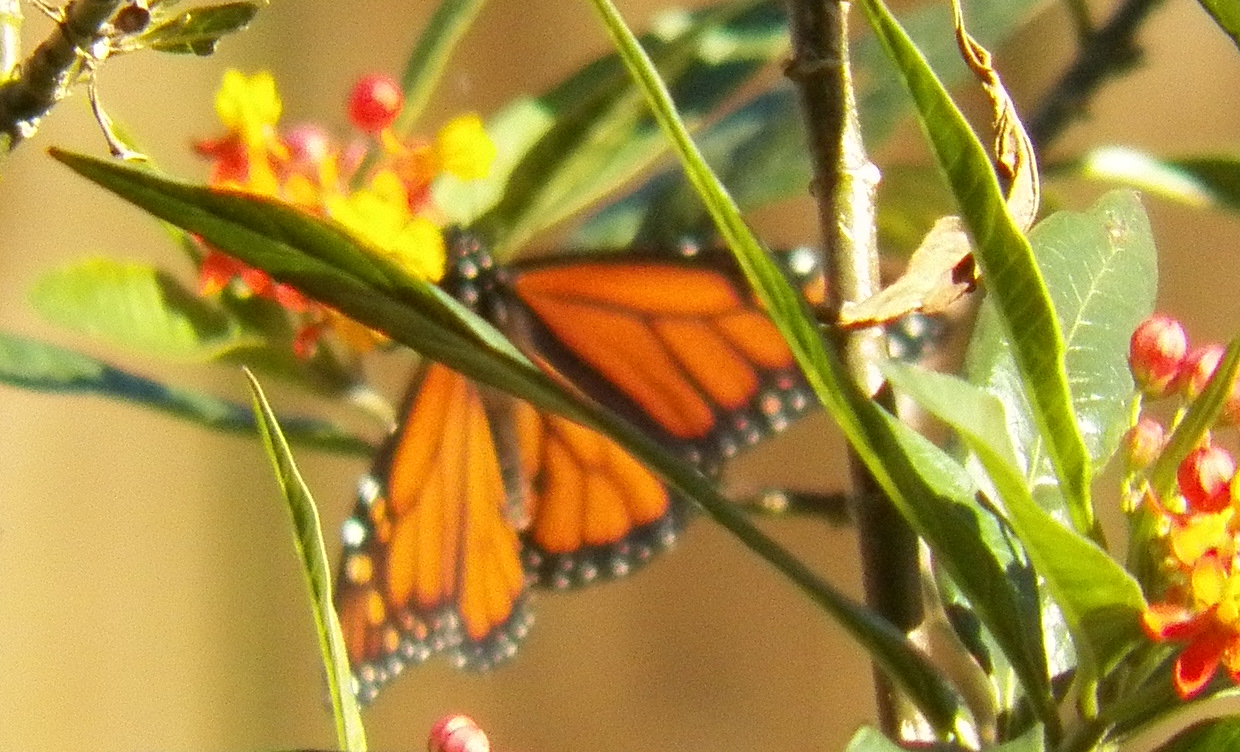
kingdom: Animalia
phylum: Arthropoda
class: Insecta
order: Lepidoptera
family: Nymphalidae
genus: Danaus
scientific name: Danaus plexippus
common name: Monarch
